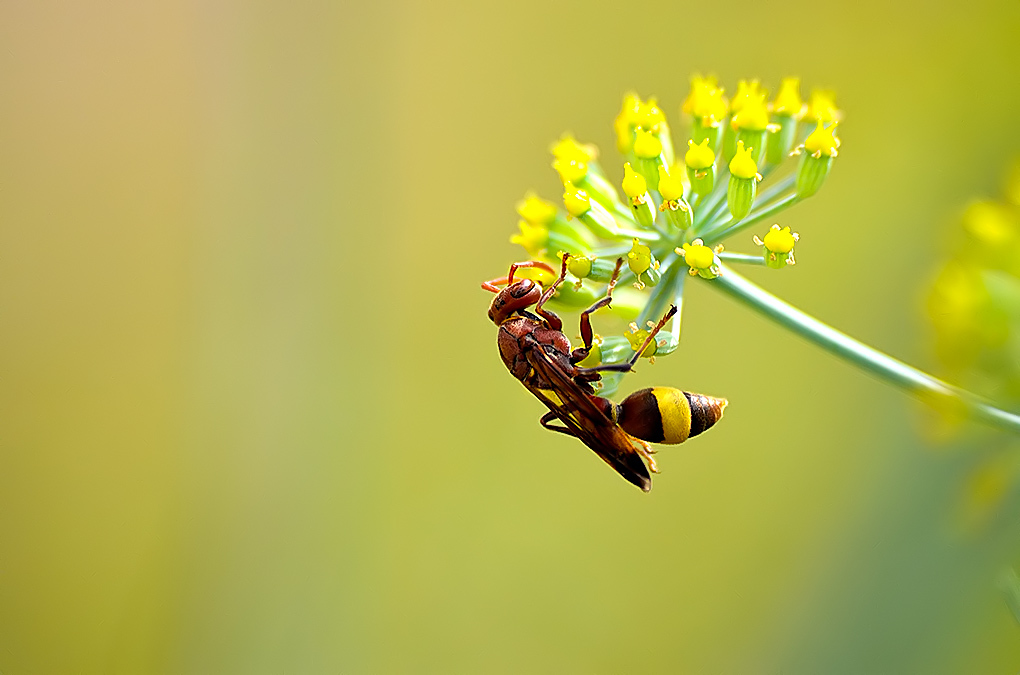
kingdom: Animalia
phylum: Arthropoda
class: Insecta
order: Hymenoptera
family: Vespidae
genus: Ropalidia
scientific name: Ropalidia
